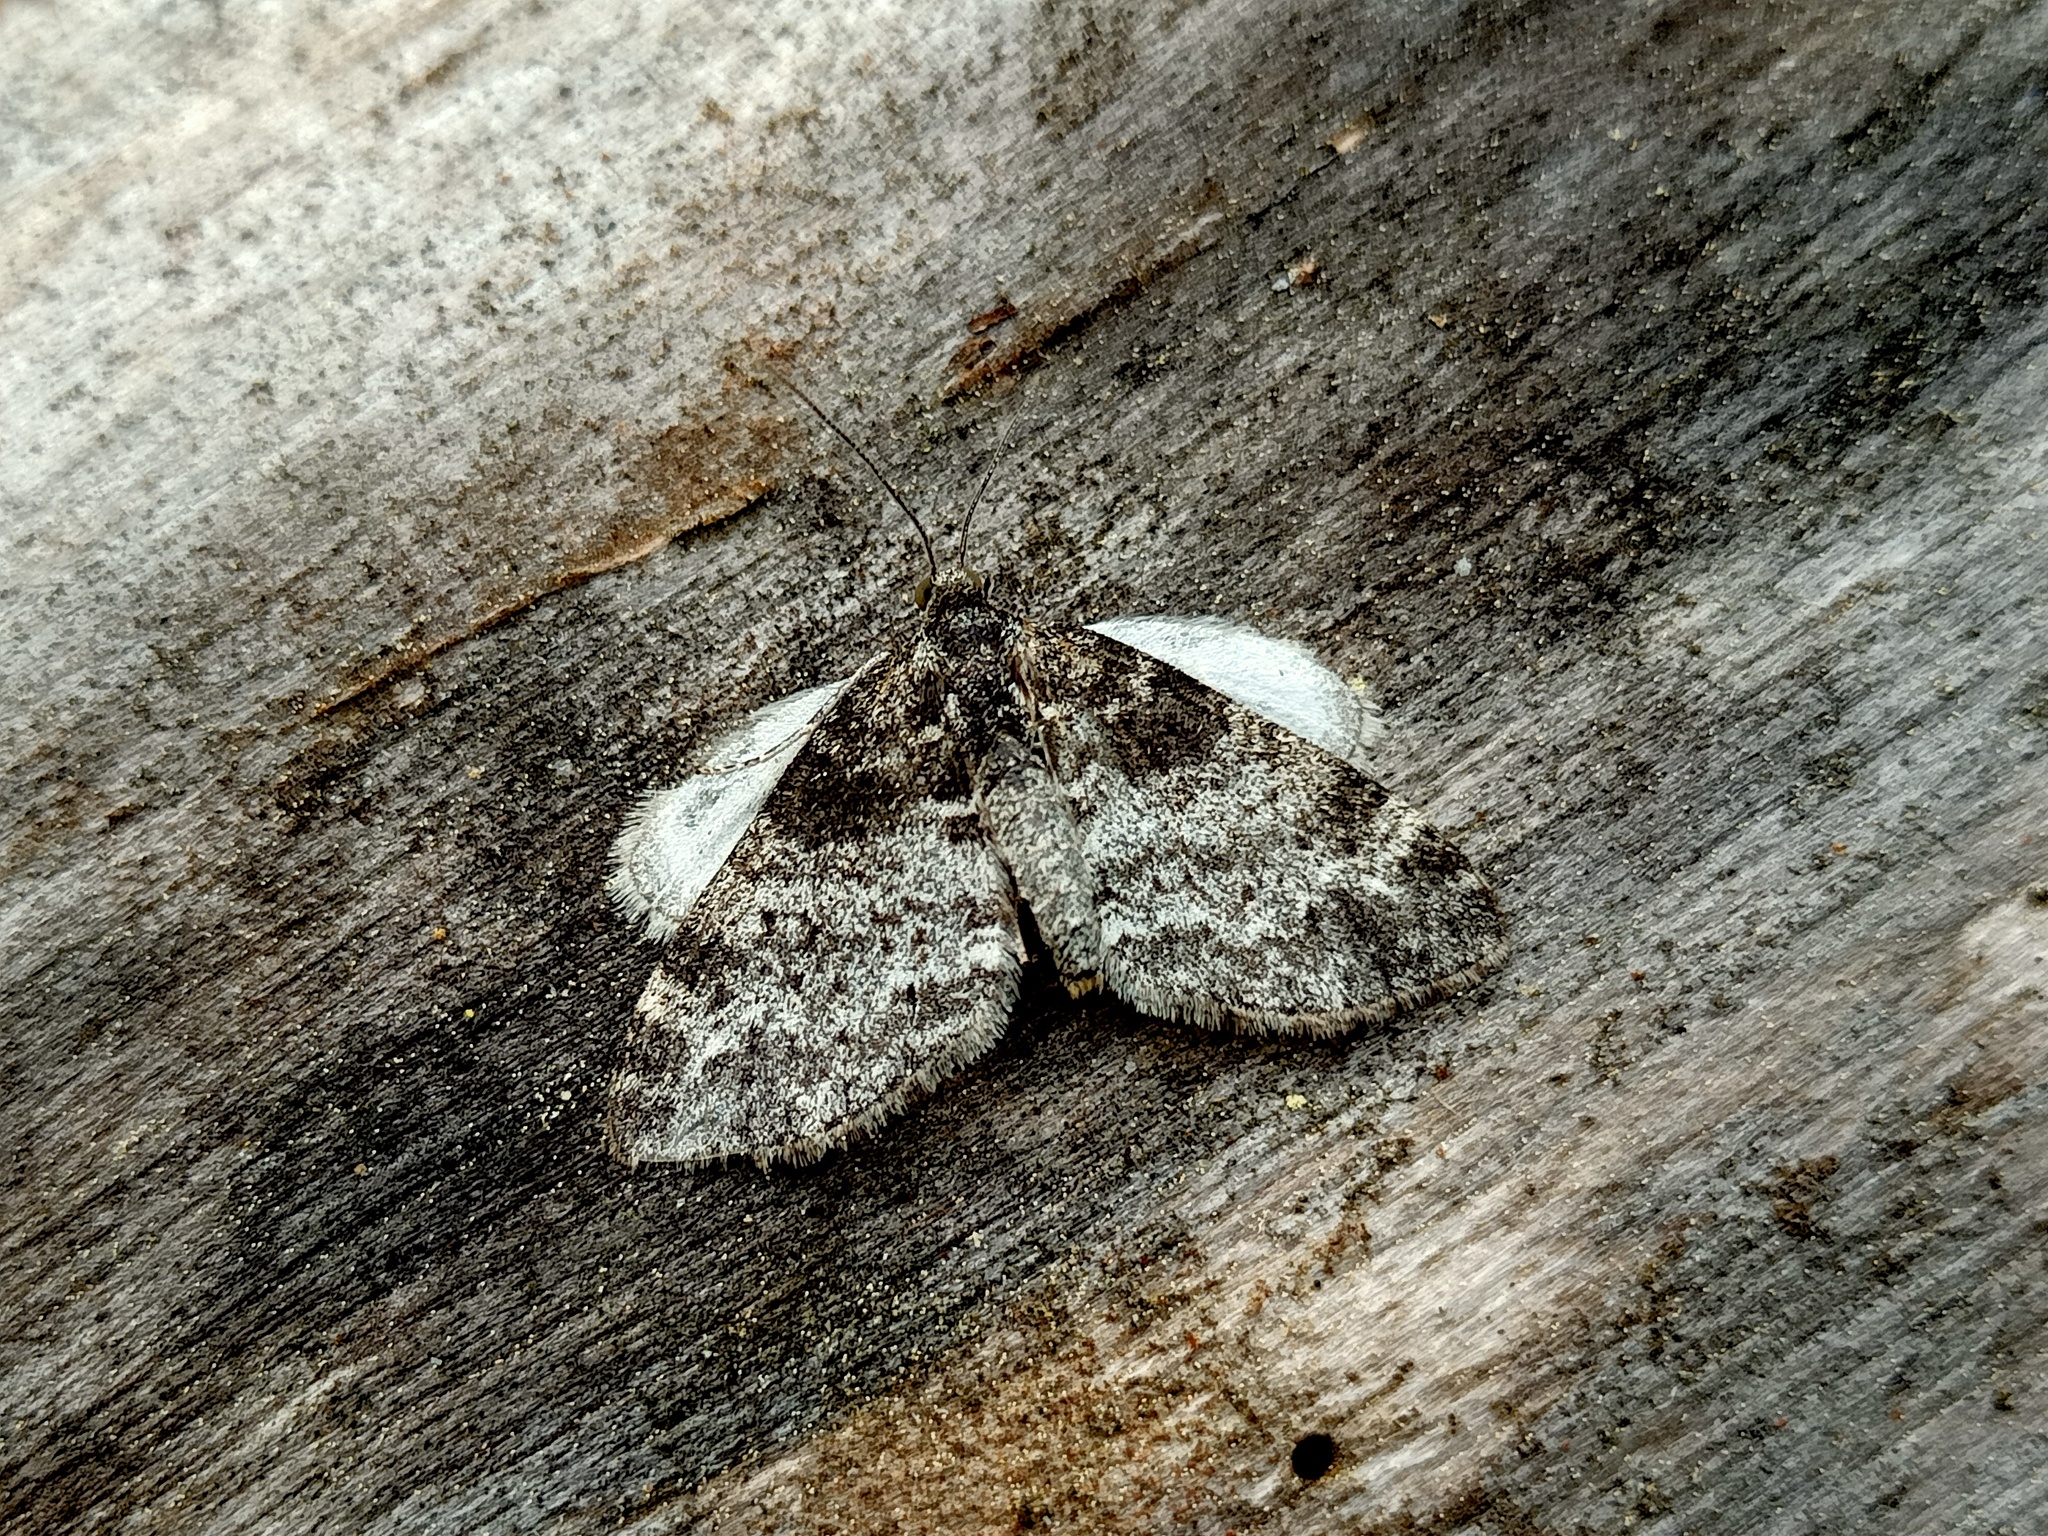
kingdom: Animalia
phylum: Arthropoda
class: Insecta
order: Lepidoptera
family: Geometridae
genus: Lobophora
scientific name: Lobophora halterata
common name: Seraphim
